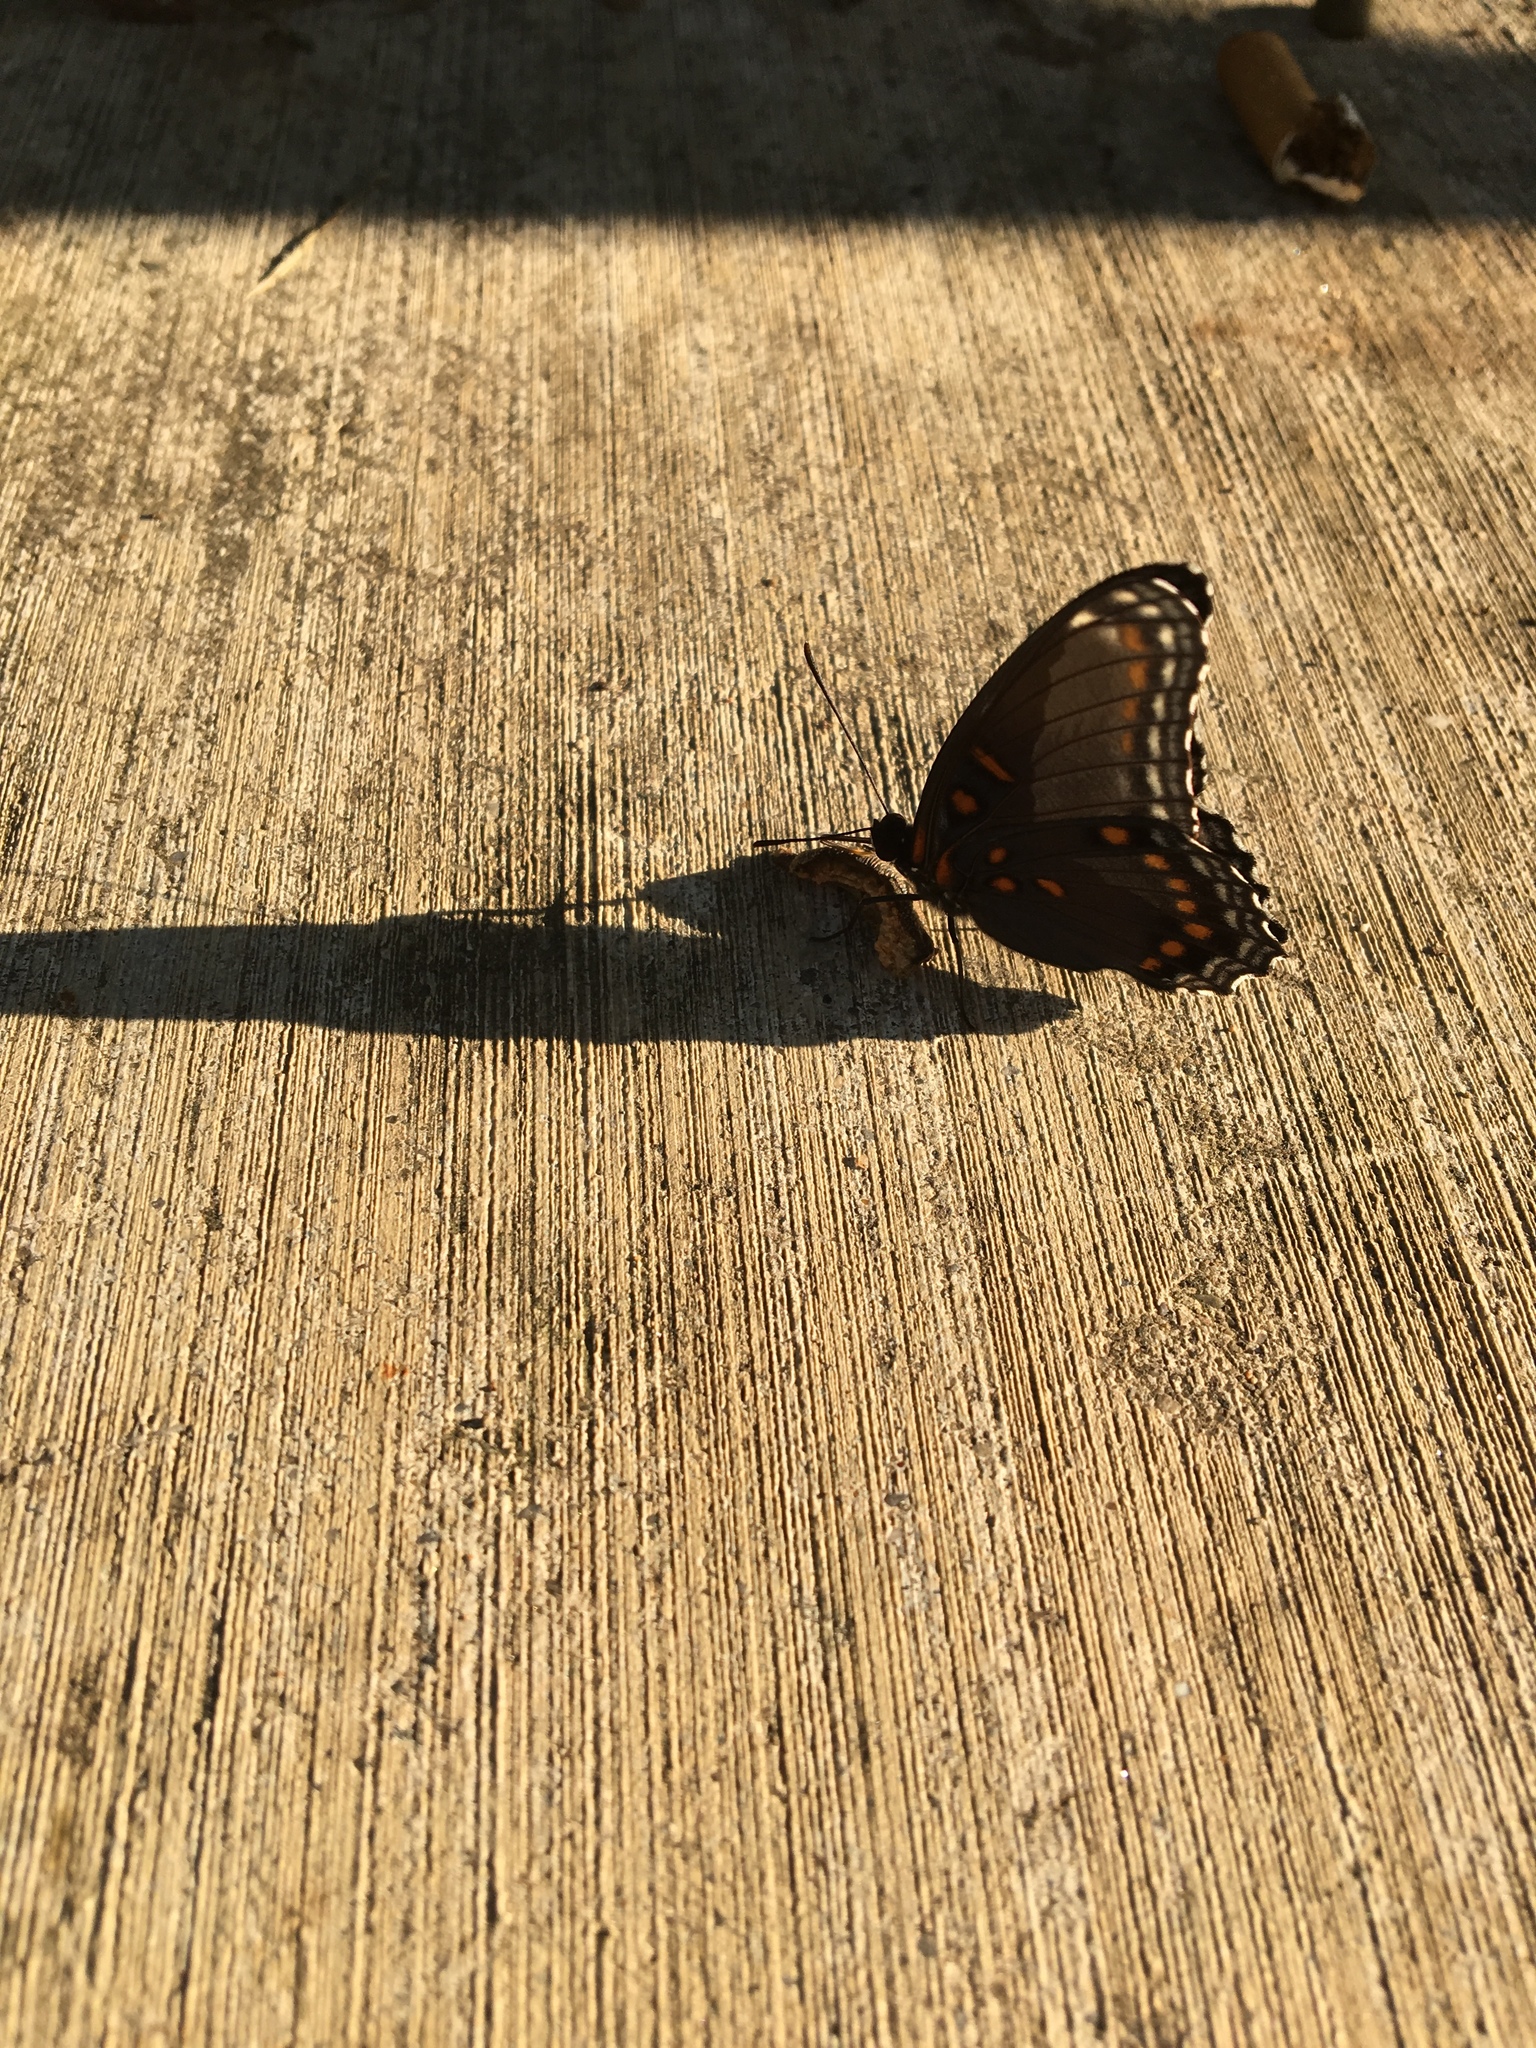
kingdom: Animalia
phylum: Arthropoda
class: Insecta
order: Lepidoptera
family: Nymphalidae
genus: Limenitis
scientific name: Limenitis arthemis
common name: Red-spotted admiral
